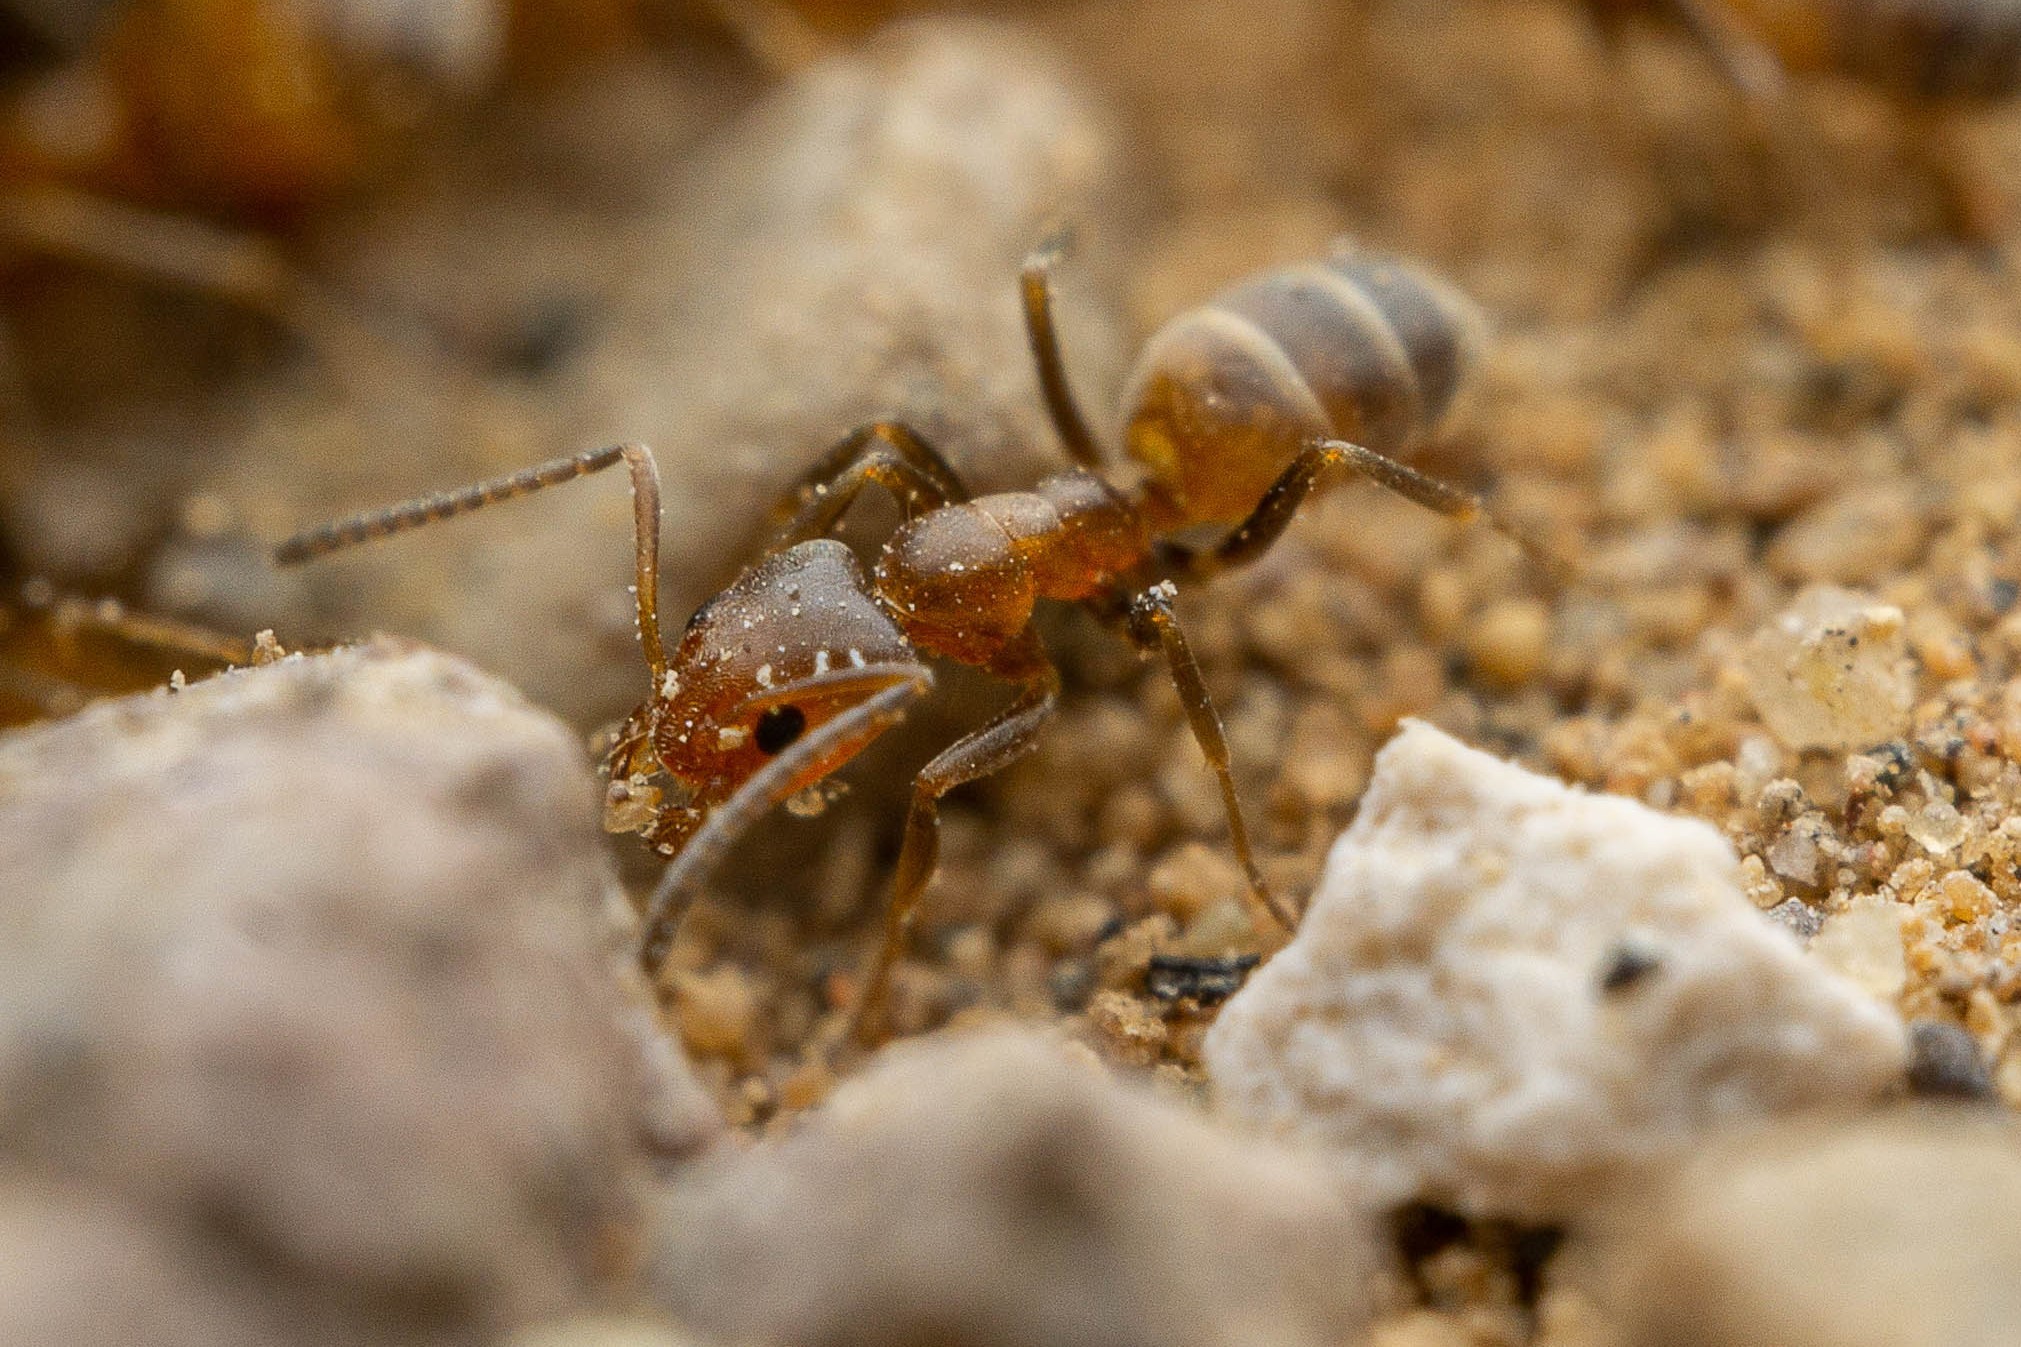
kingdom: Animalia
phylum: Arthropoda
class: Insecta
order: Hymenoptera
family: Formicidae
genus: Forelius
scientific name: Forelius pruinosus
